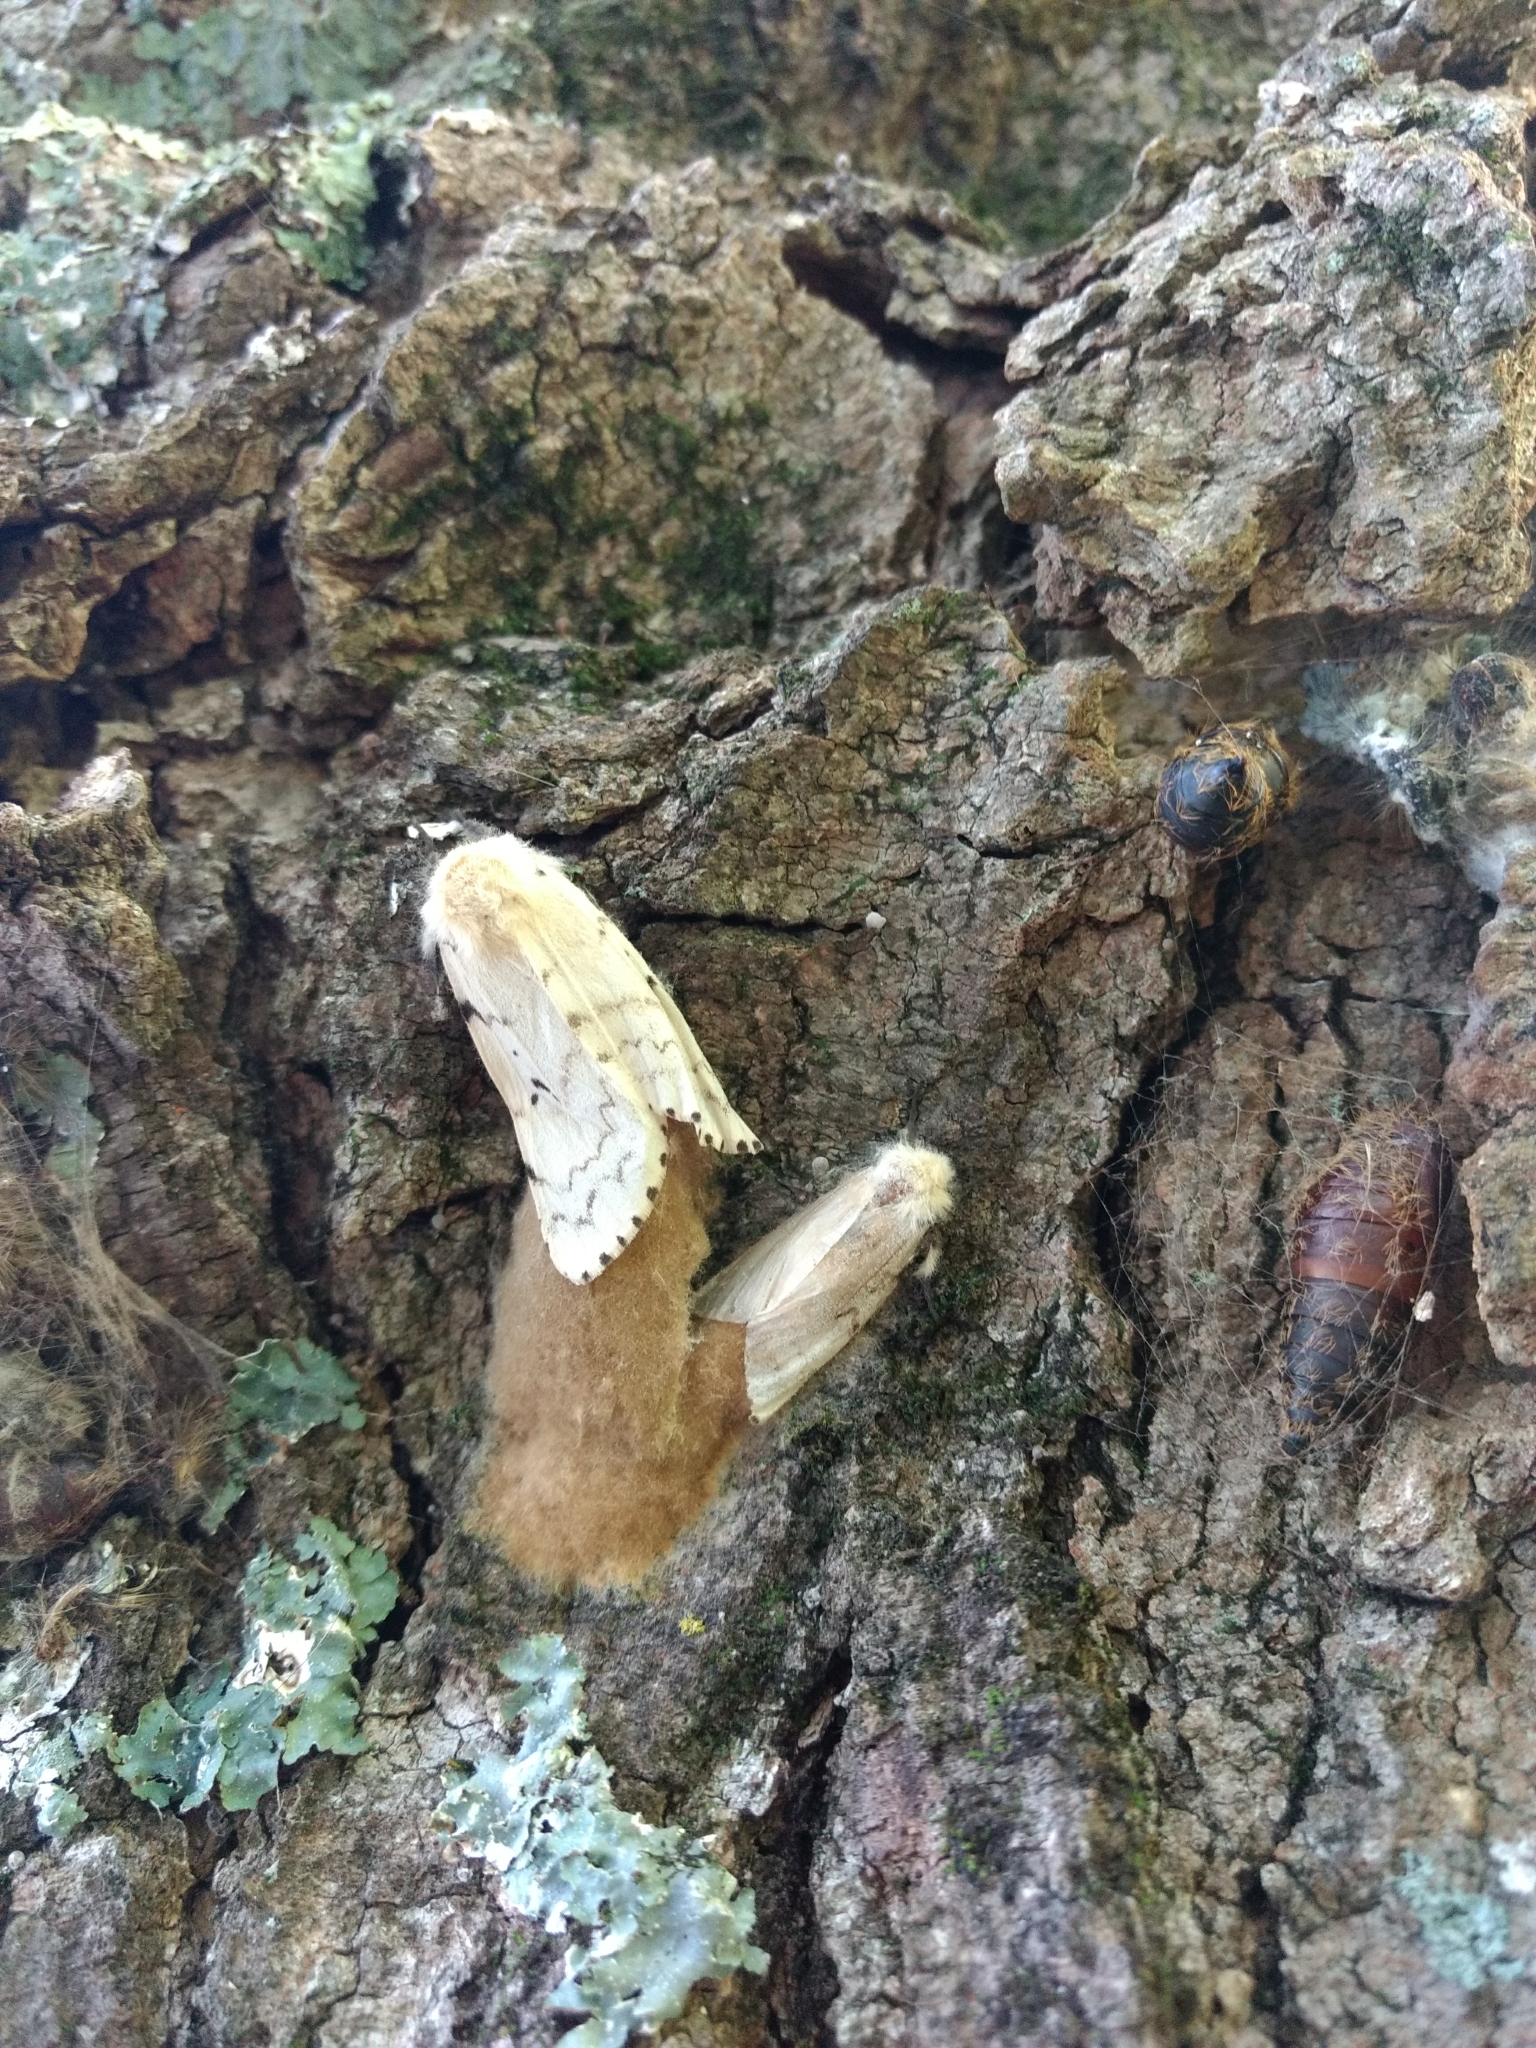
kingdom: Animalia
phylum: Arthropoda
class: Insecta
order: Lepidoptera
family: Erebidae
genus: Lymantria
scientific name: Lymantria dispar
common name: Gypsy moth
